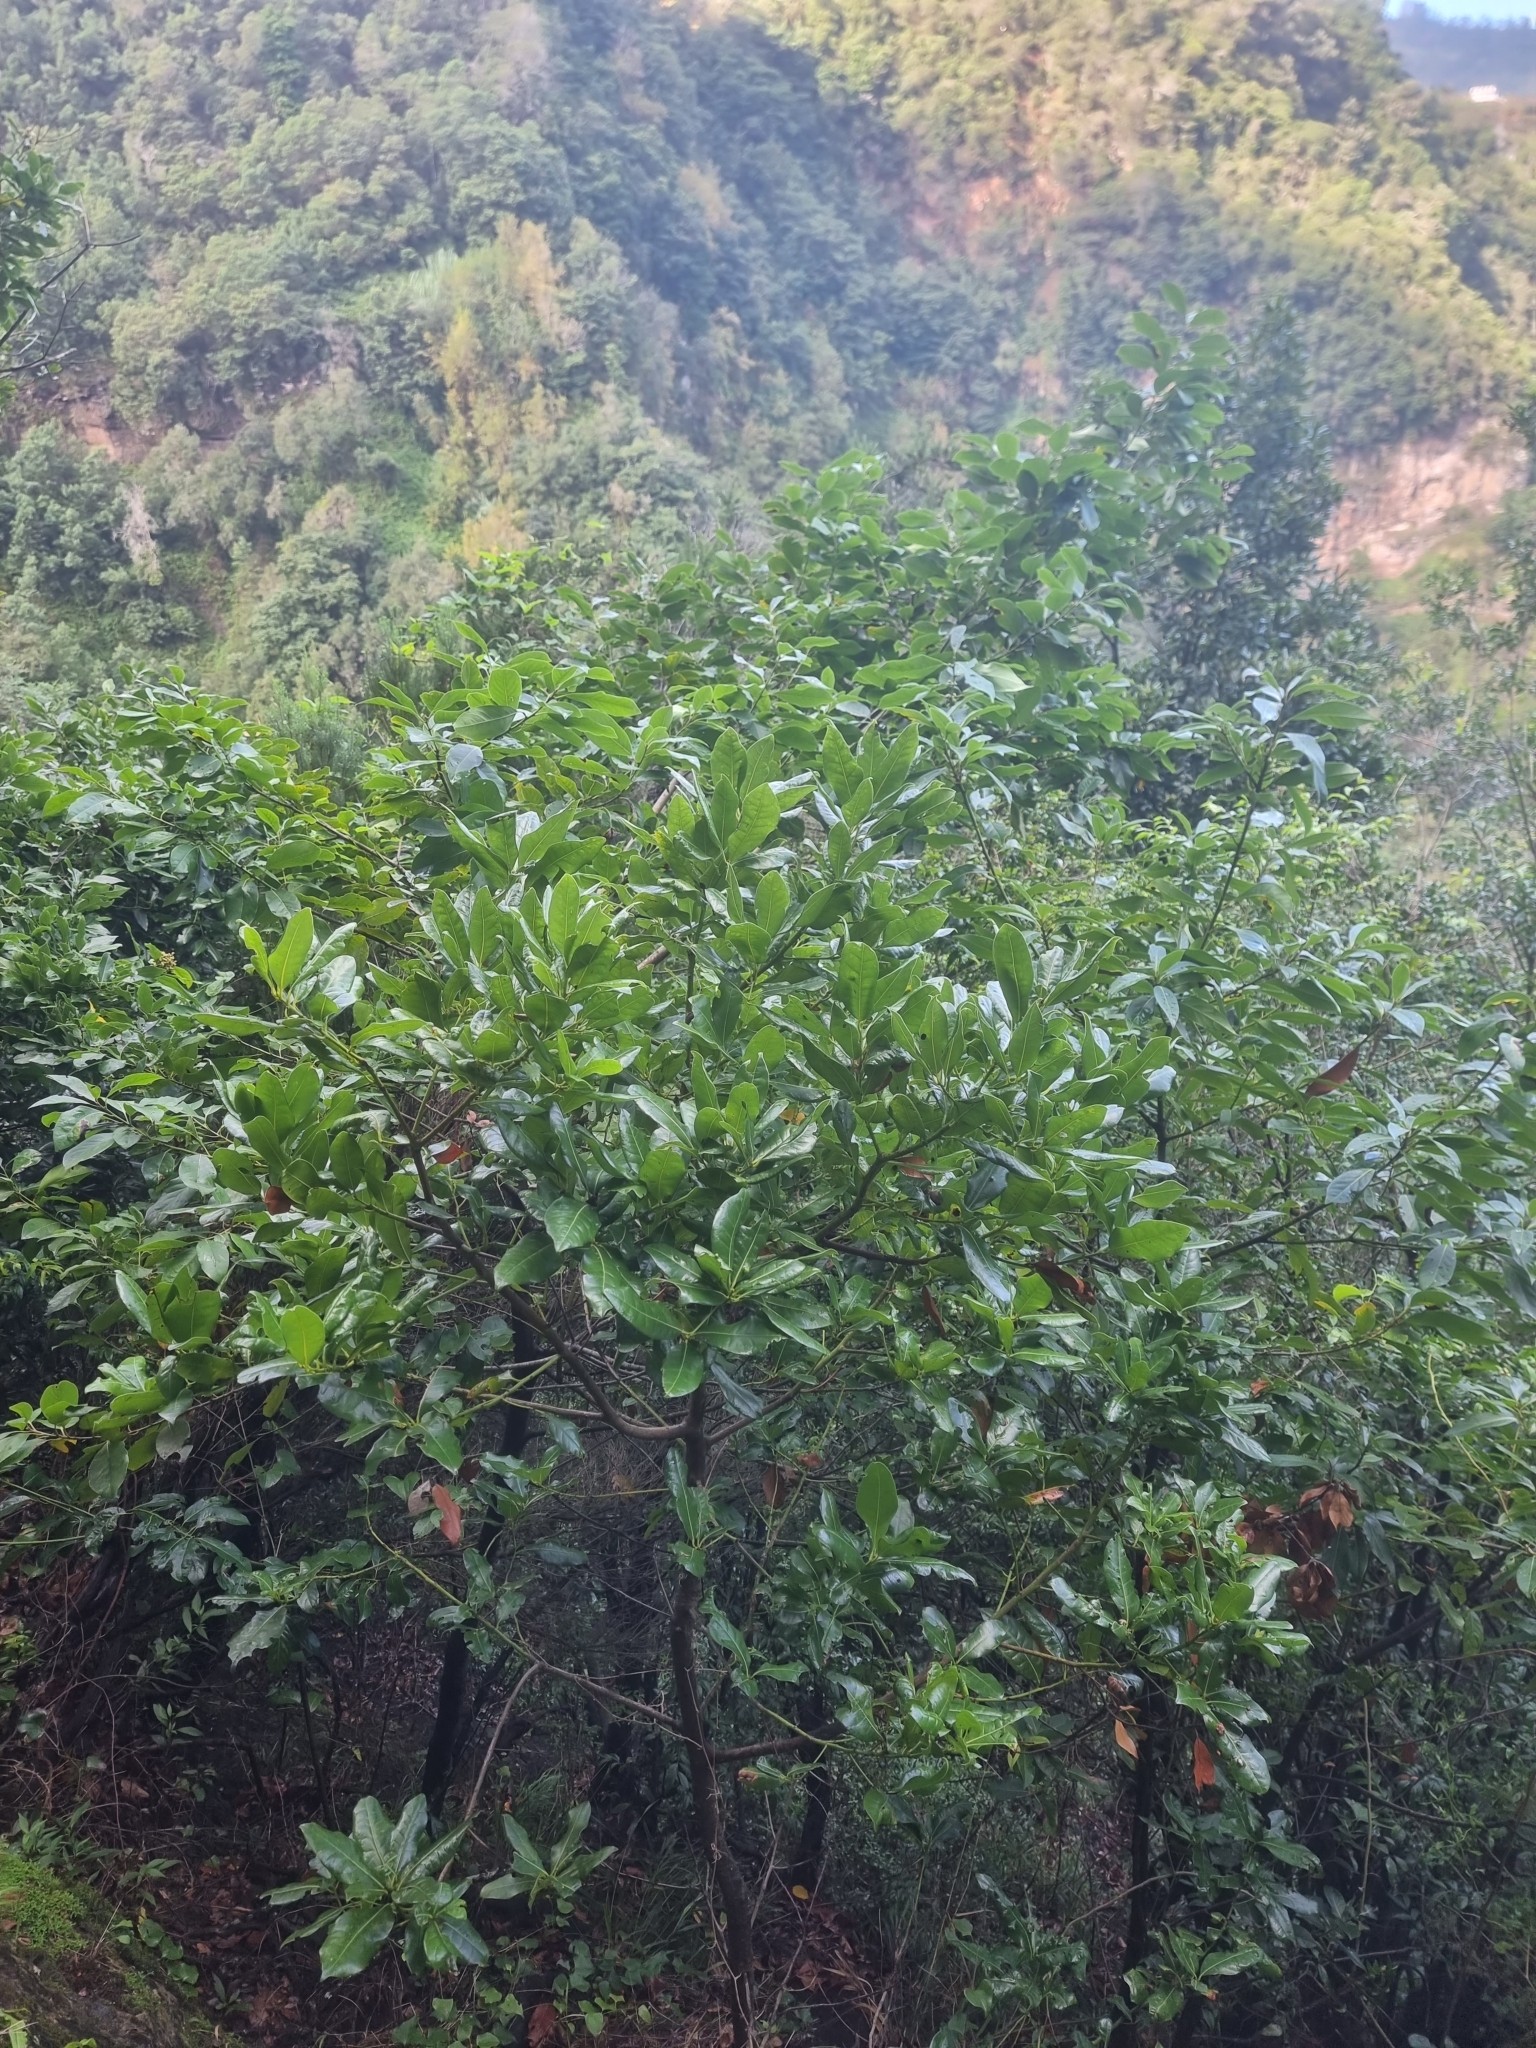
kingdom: Plantae
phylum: Tracheophyta
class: Magnoliopsida
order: Laurales
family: Lauraceae
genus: Apollonias
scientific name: Apollonias barbujana
